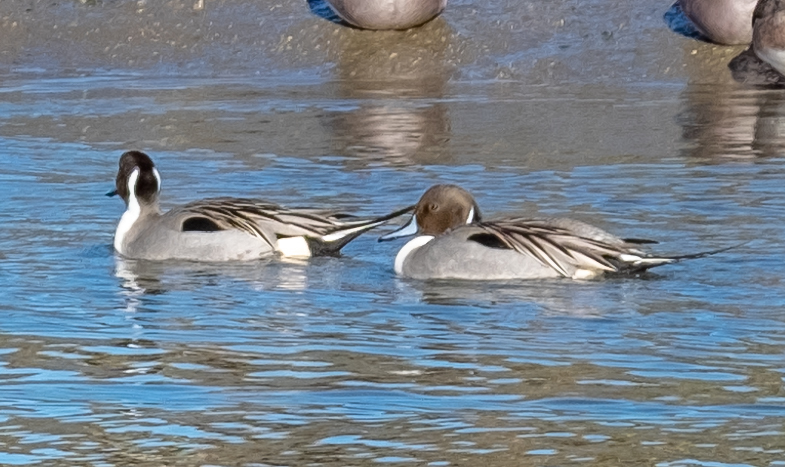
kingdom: Animalia
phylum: Chordata
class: Aves
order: Anseriformes
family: Anatidae
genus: Anas
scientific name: Anas acuta
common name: Northern pintail
